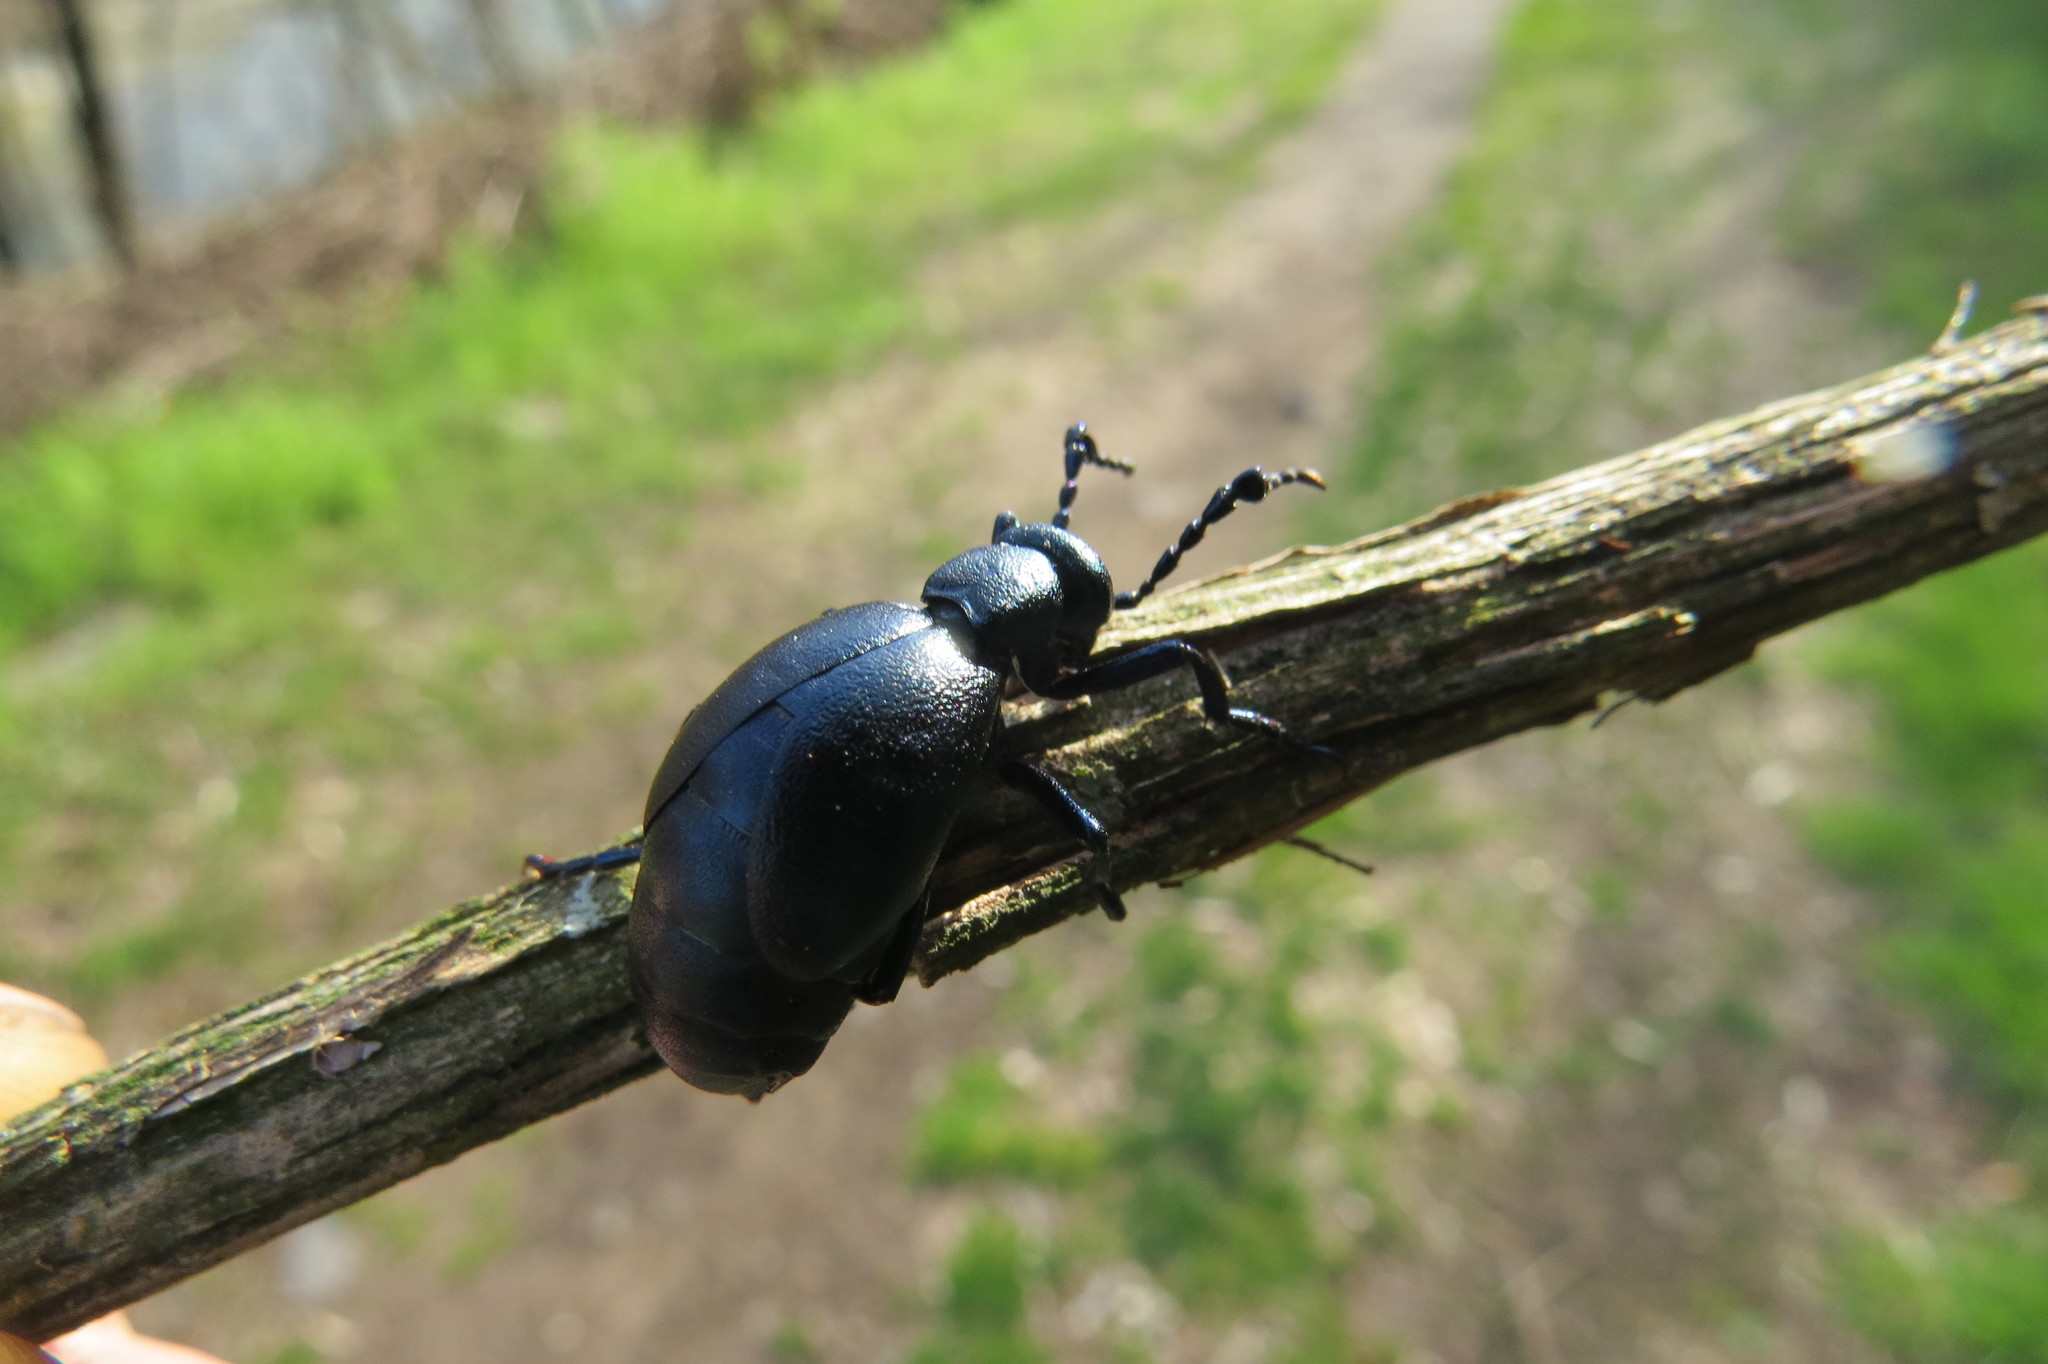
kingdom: Animalia
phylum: Arthropoda
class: Insecta
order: Coleoptera
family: Meloidae
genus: Meloe
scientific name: Meloe violaceus
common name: Violet oil-beetle
